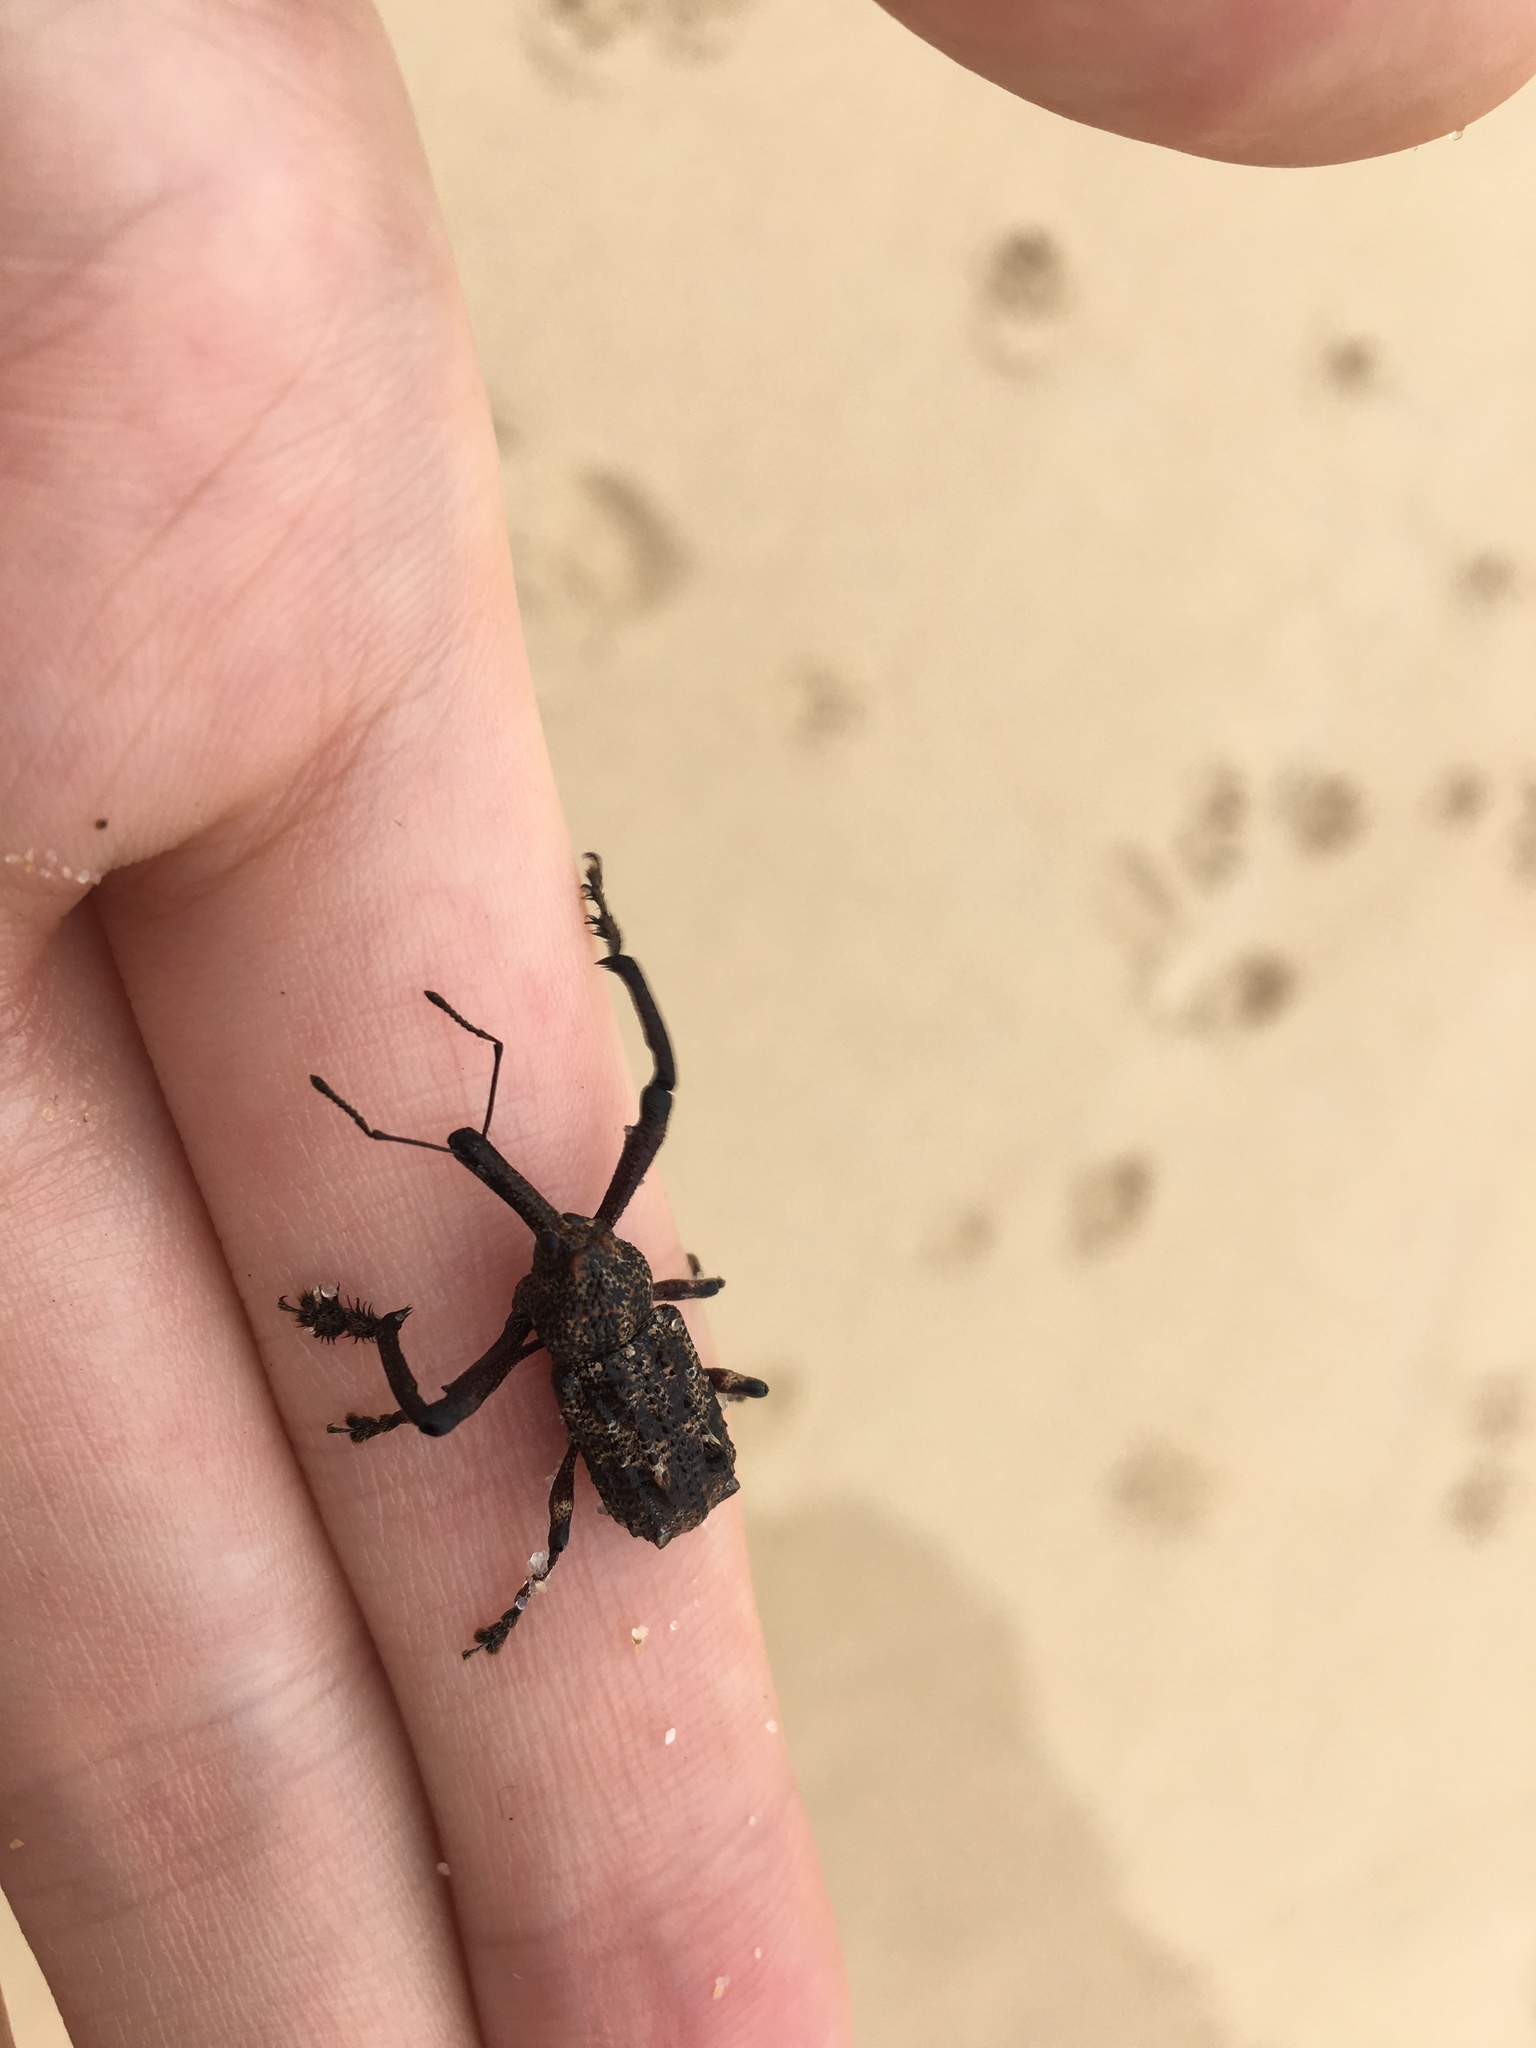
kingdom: Animalia
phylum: Arthropoda
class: Insecta
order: Coleoptera
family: Curculionidae
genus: Orthorhinus
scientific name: Orthorhinus cylindrirostris
